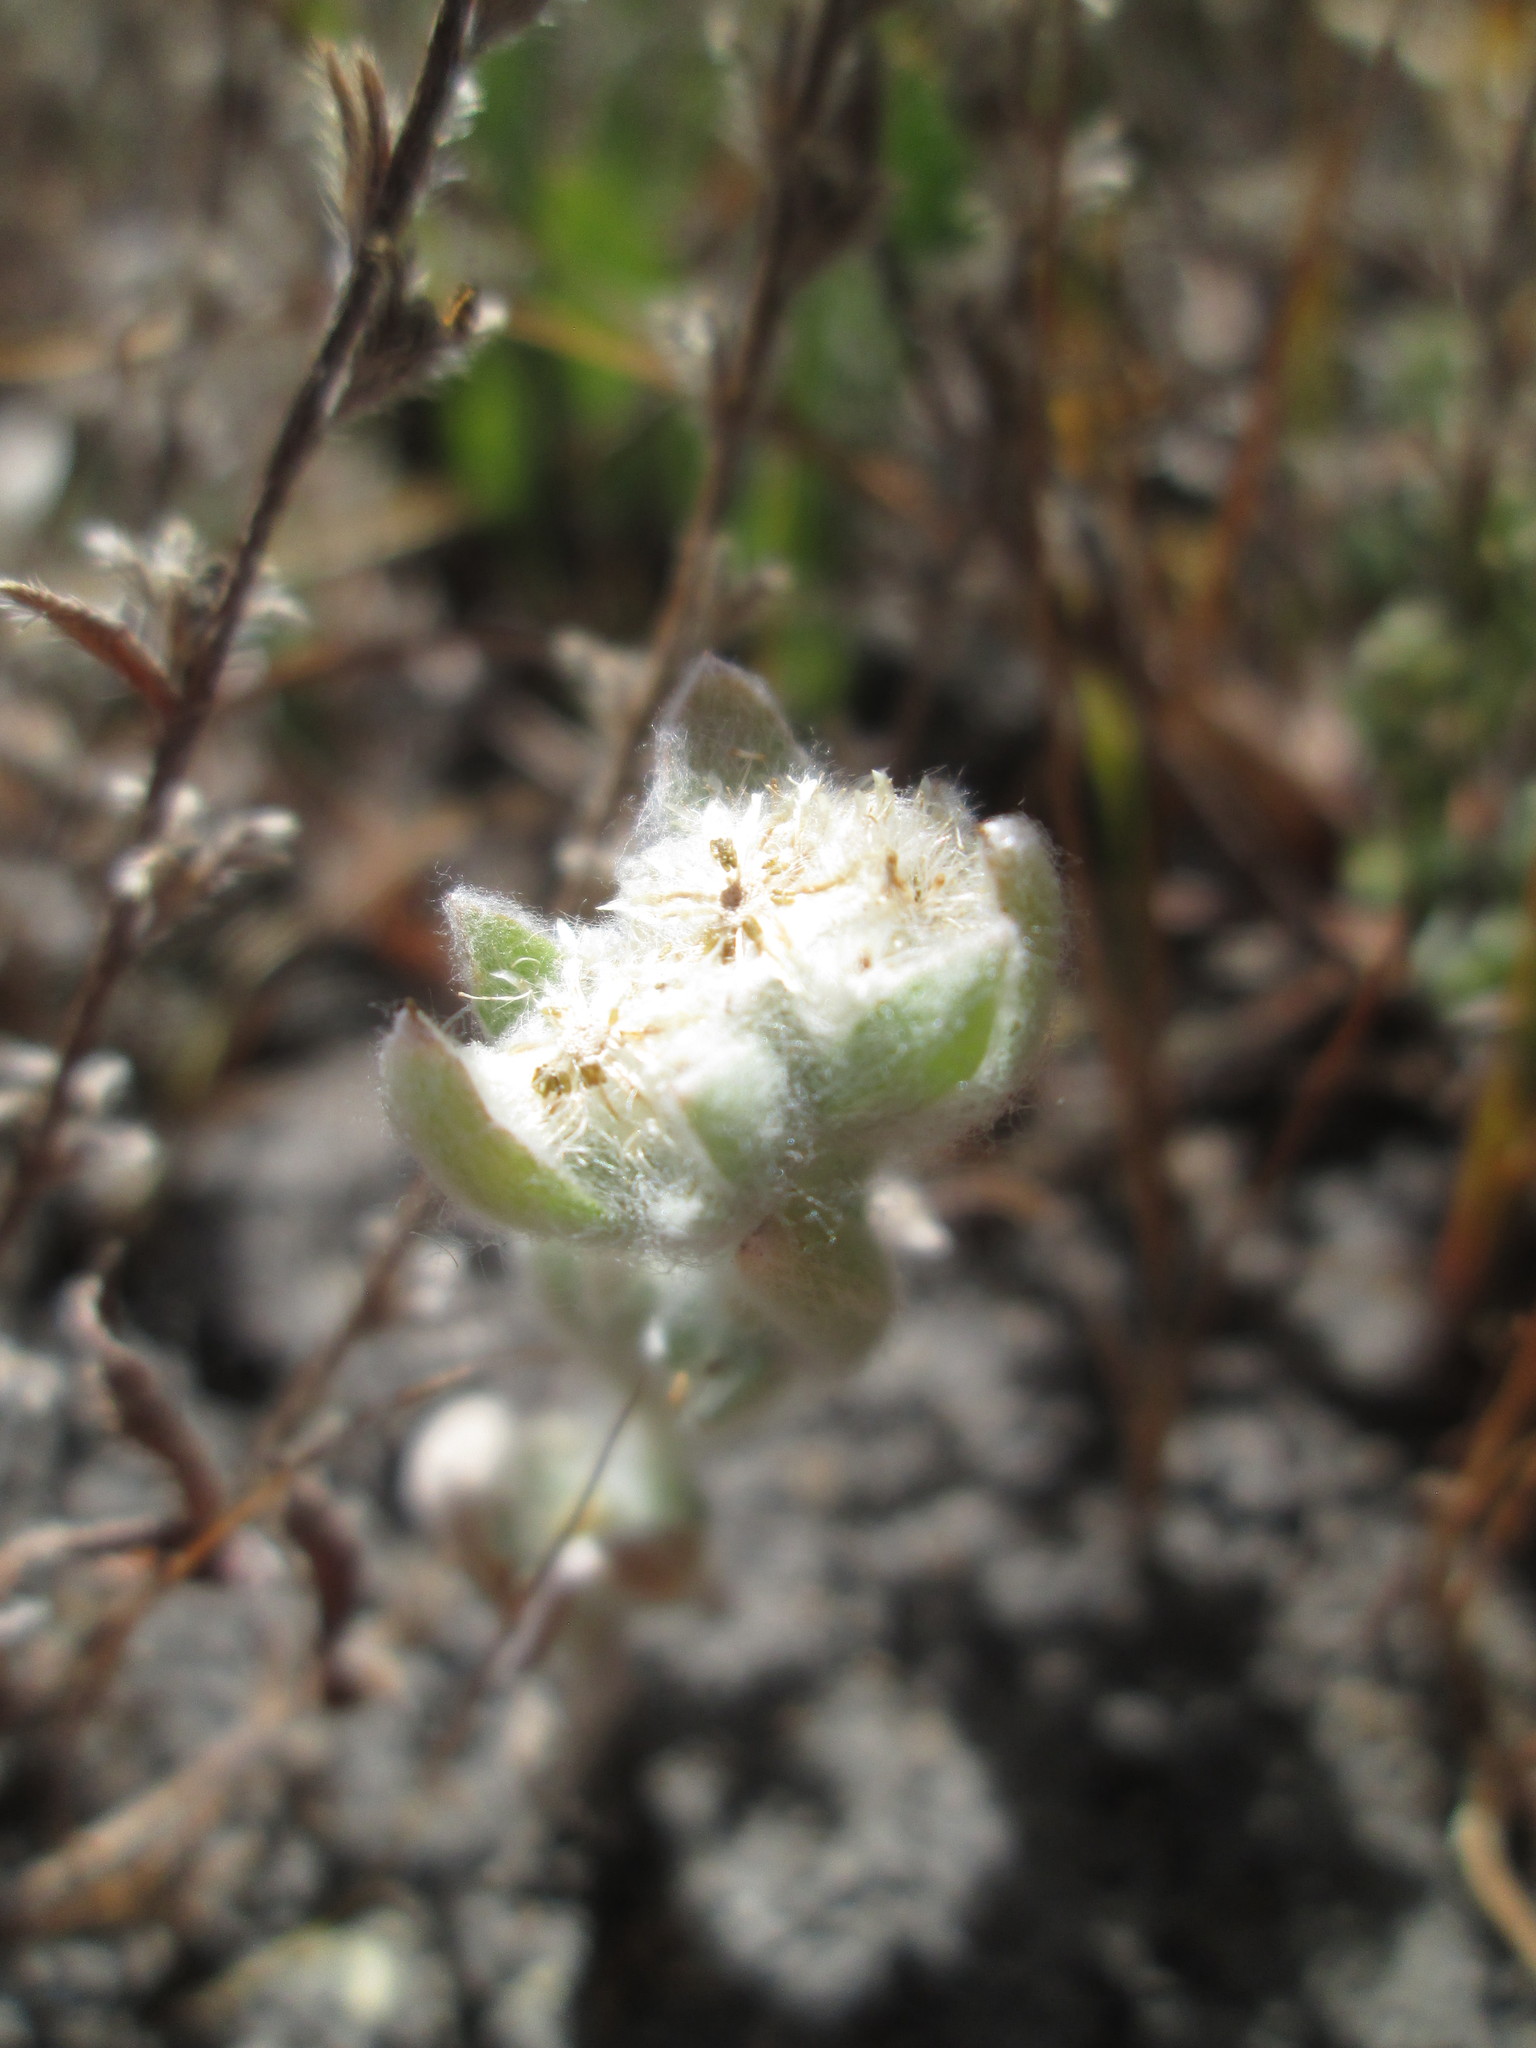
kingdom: Plantae
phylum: Tracheophyta
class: Magnoliopsida
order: Asterales
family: Asteraceae
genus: Gnaphalium
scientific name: Gnaphalium palustre
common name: Western marsh cudweed
